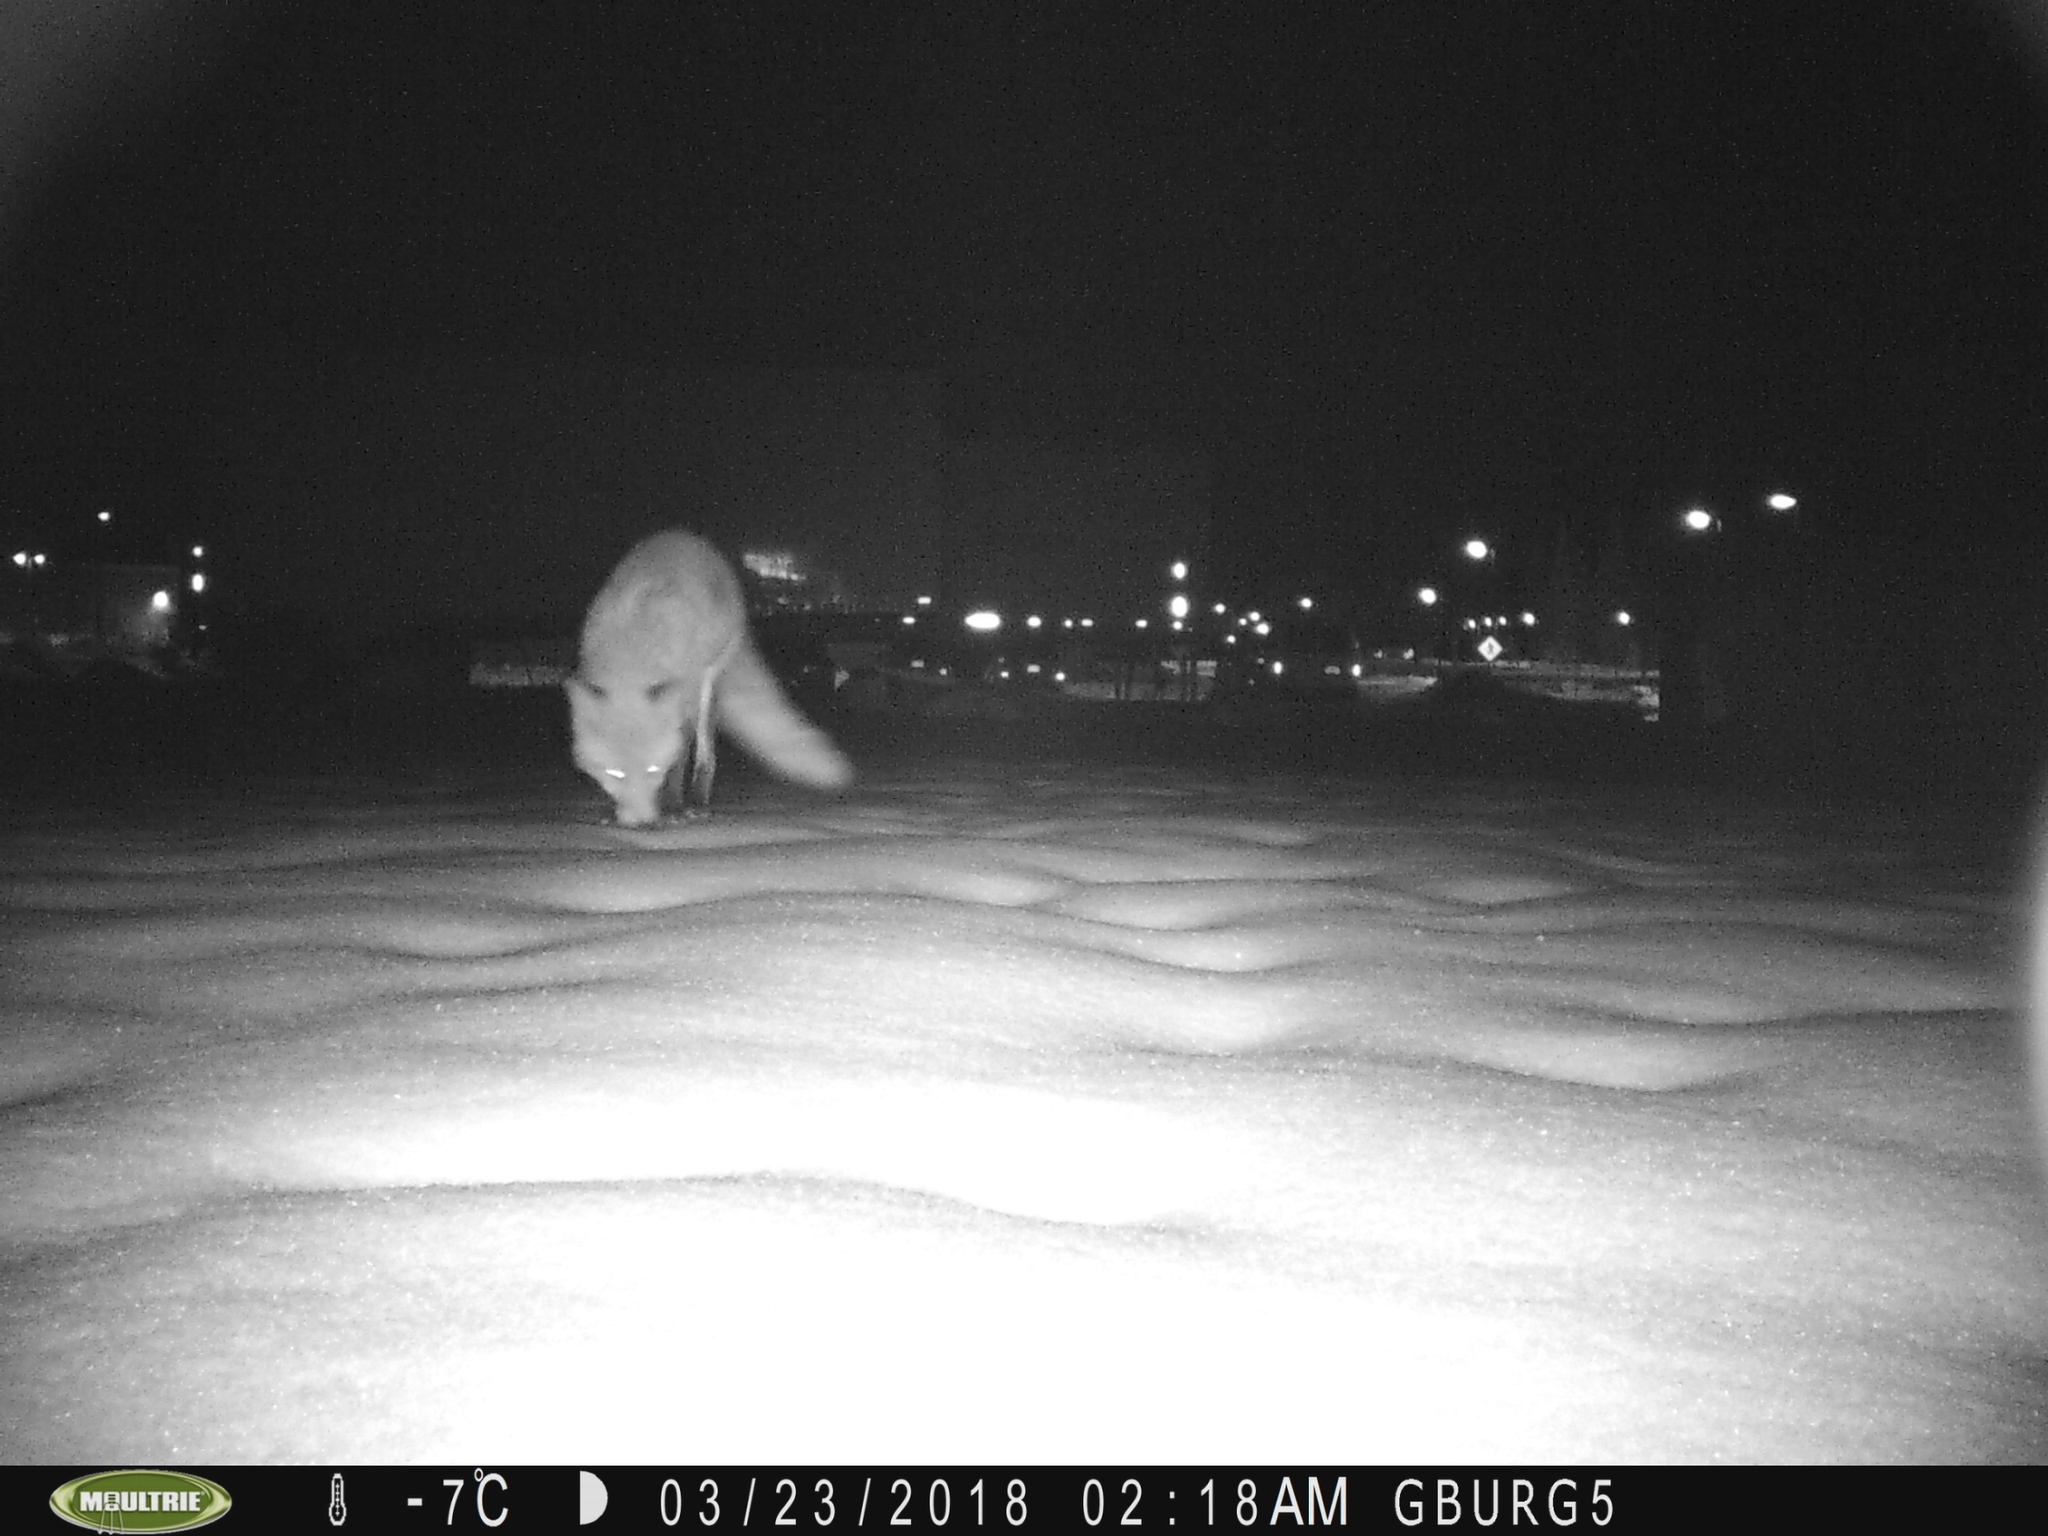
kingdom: Animalia
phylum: Chordata
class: Mammalia
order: Carnivora
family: Canidae
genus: Vulpes
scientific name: Vulpes vulpes
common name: Red fox
